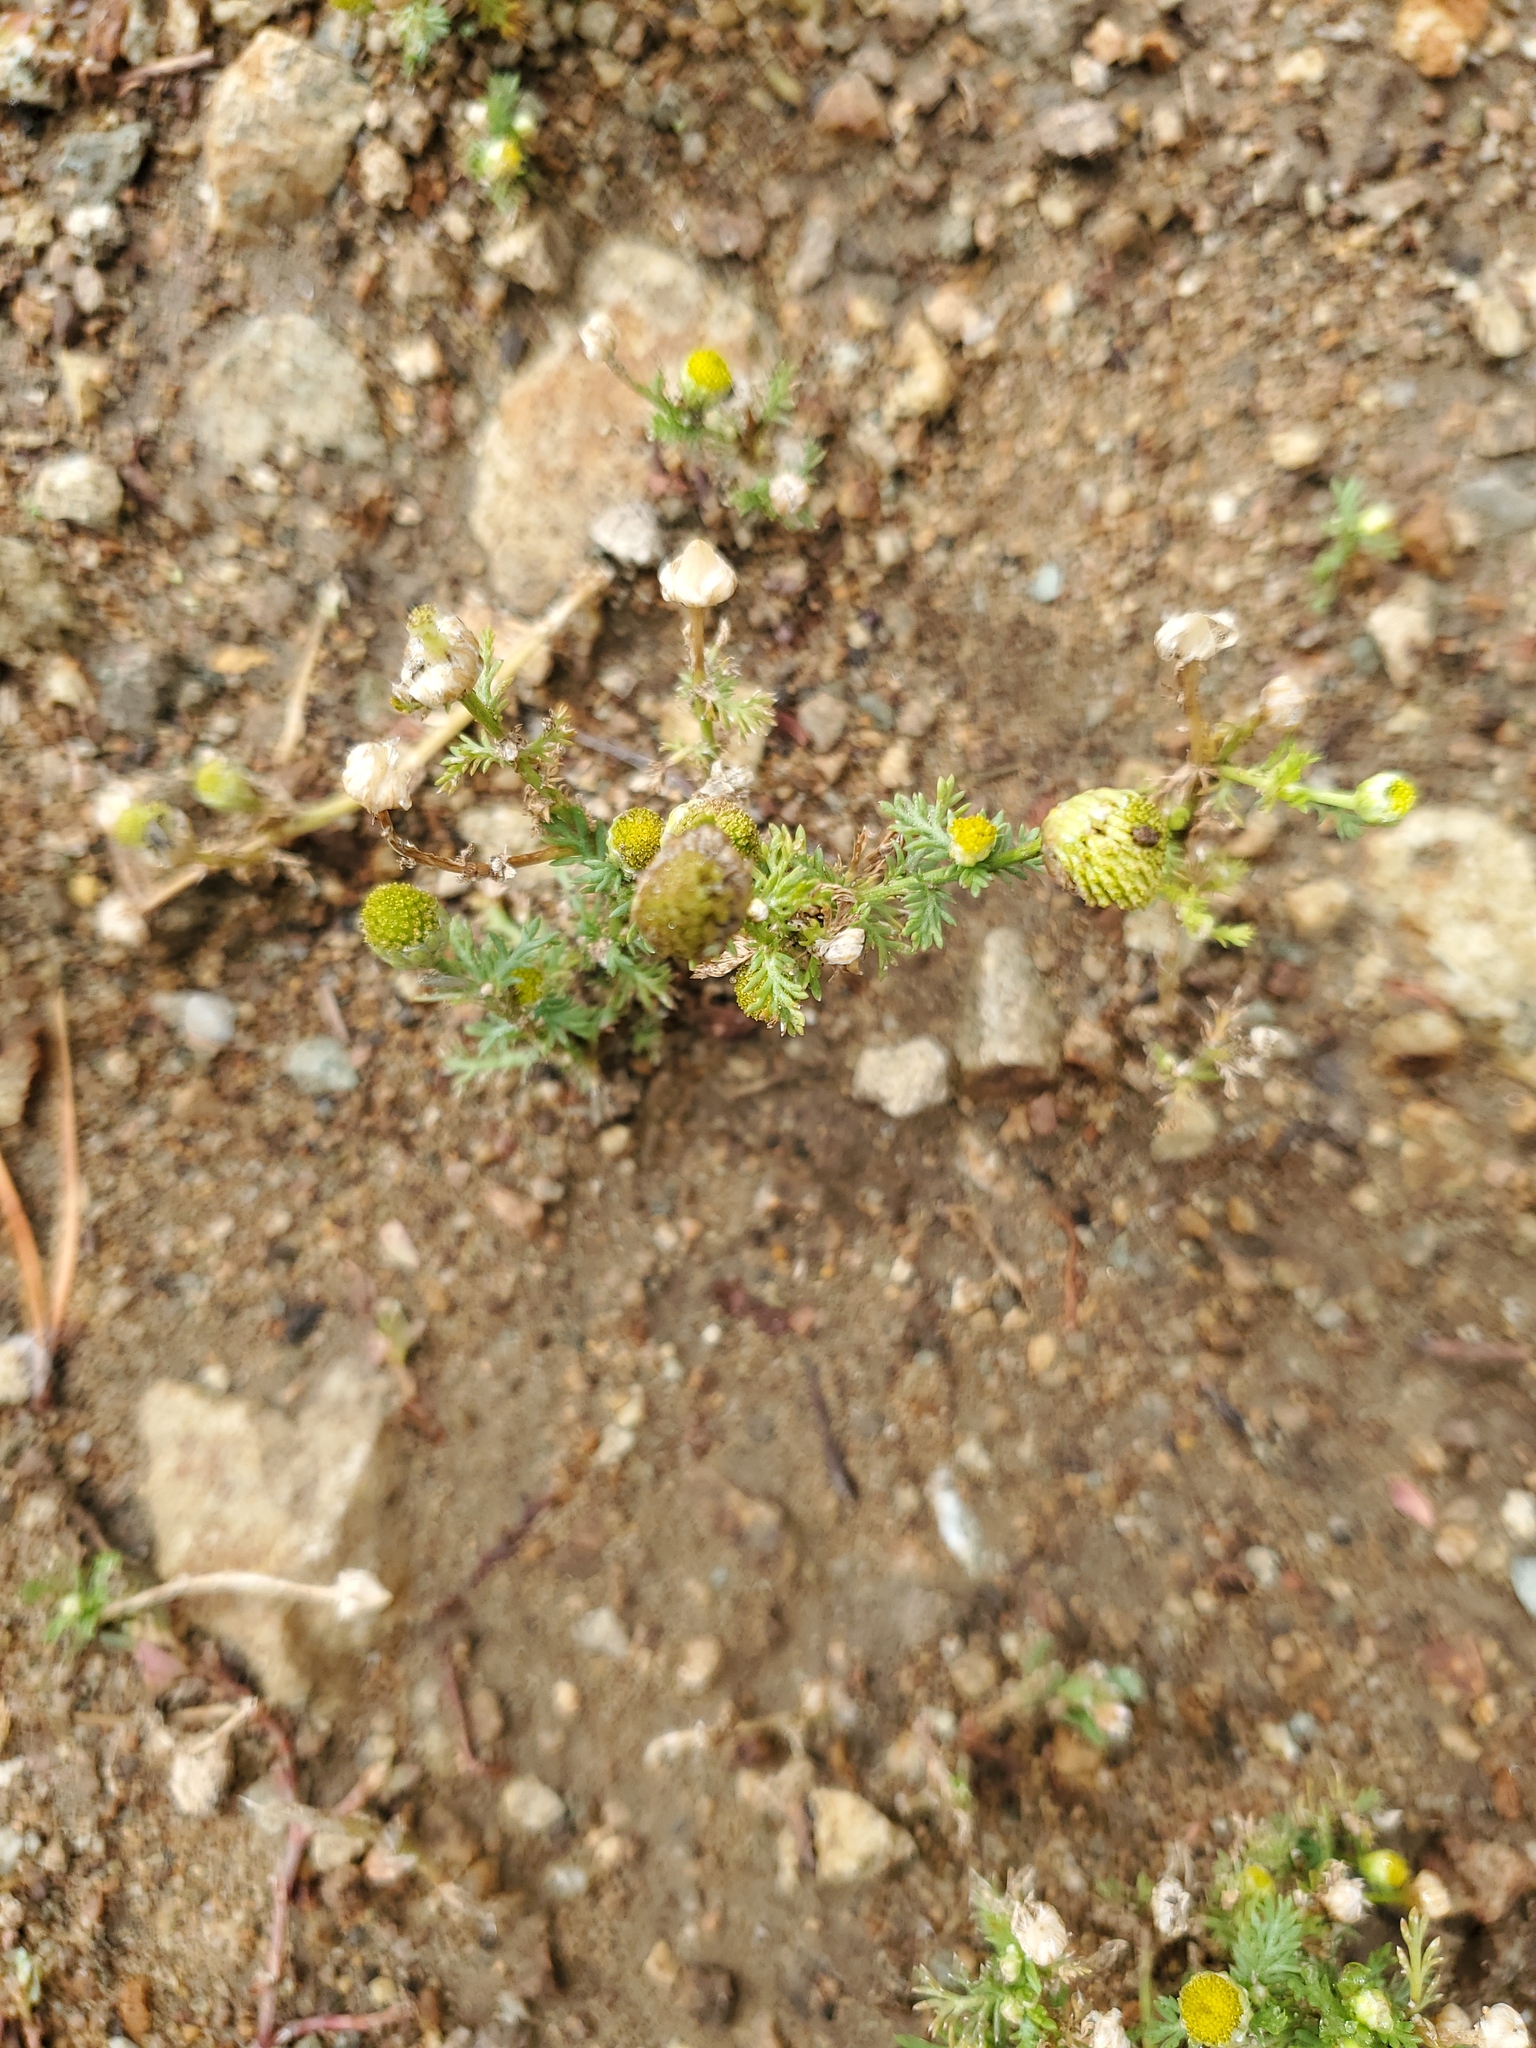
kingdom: Plantae
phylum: Tracheophyta
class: Magnoliopsida
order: Asterales
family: Asteraceae
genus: Matricaria
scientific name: Matricaria discoidea
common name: Disc mayweed
